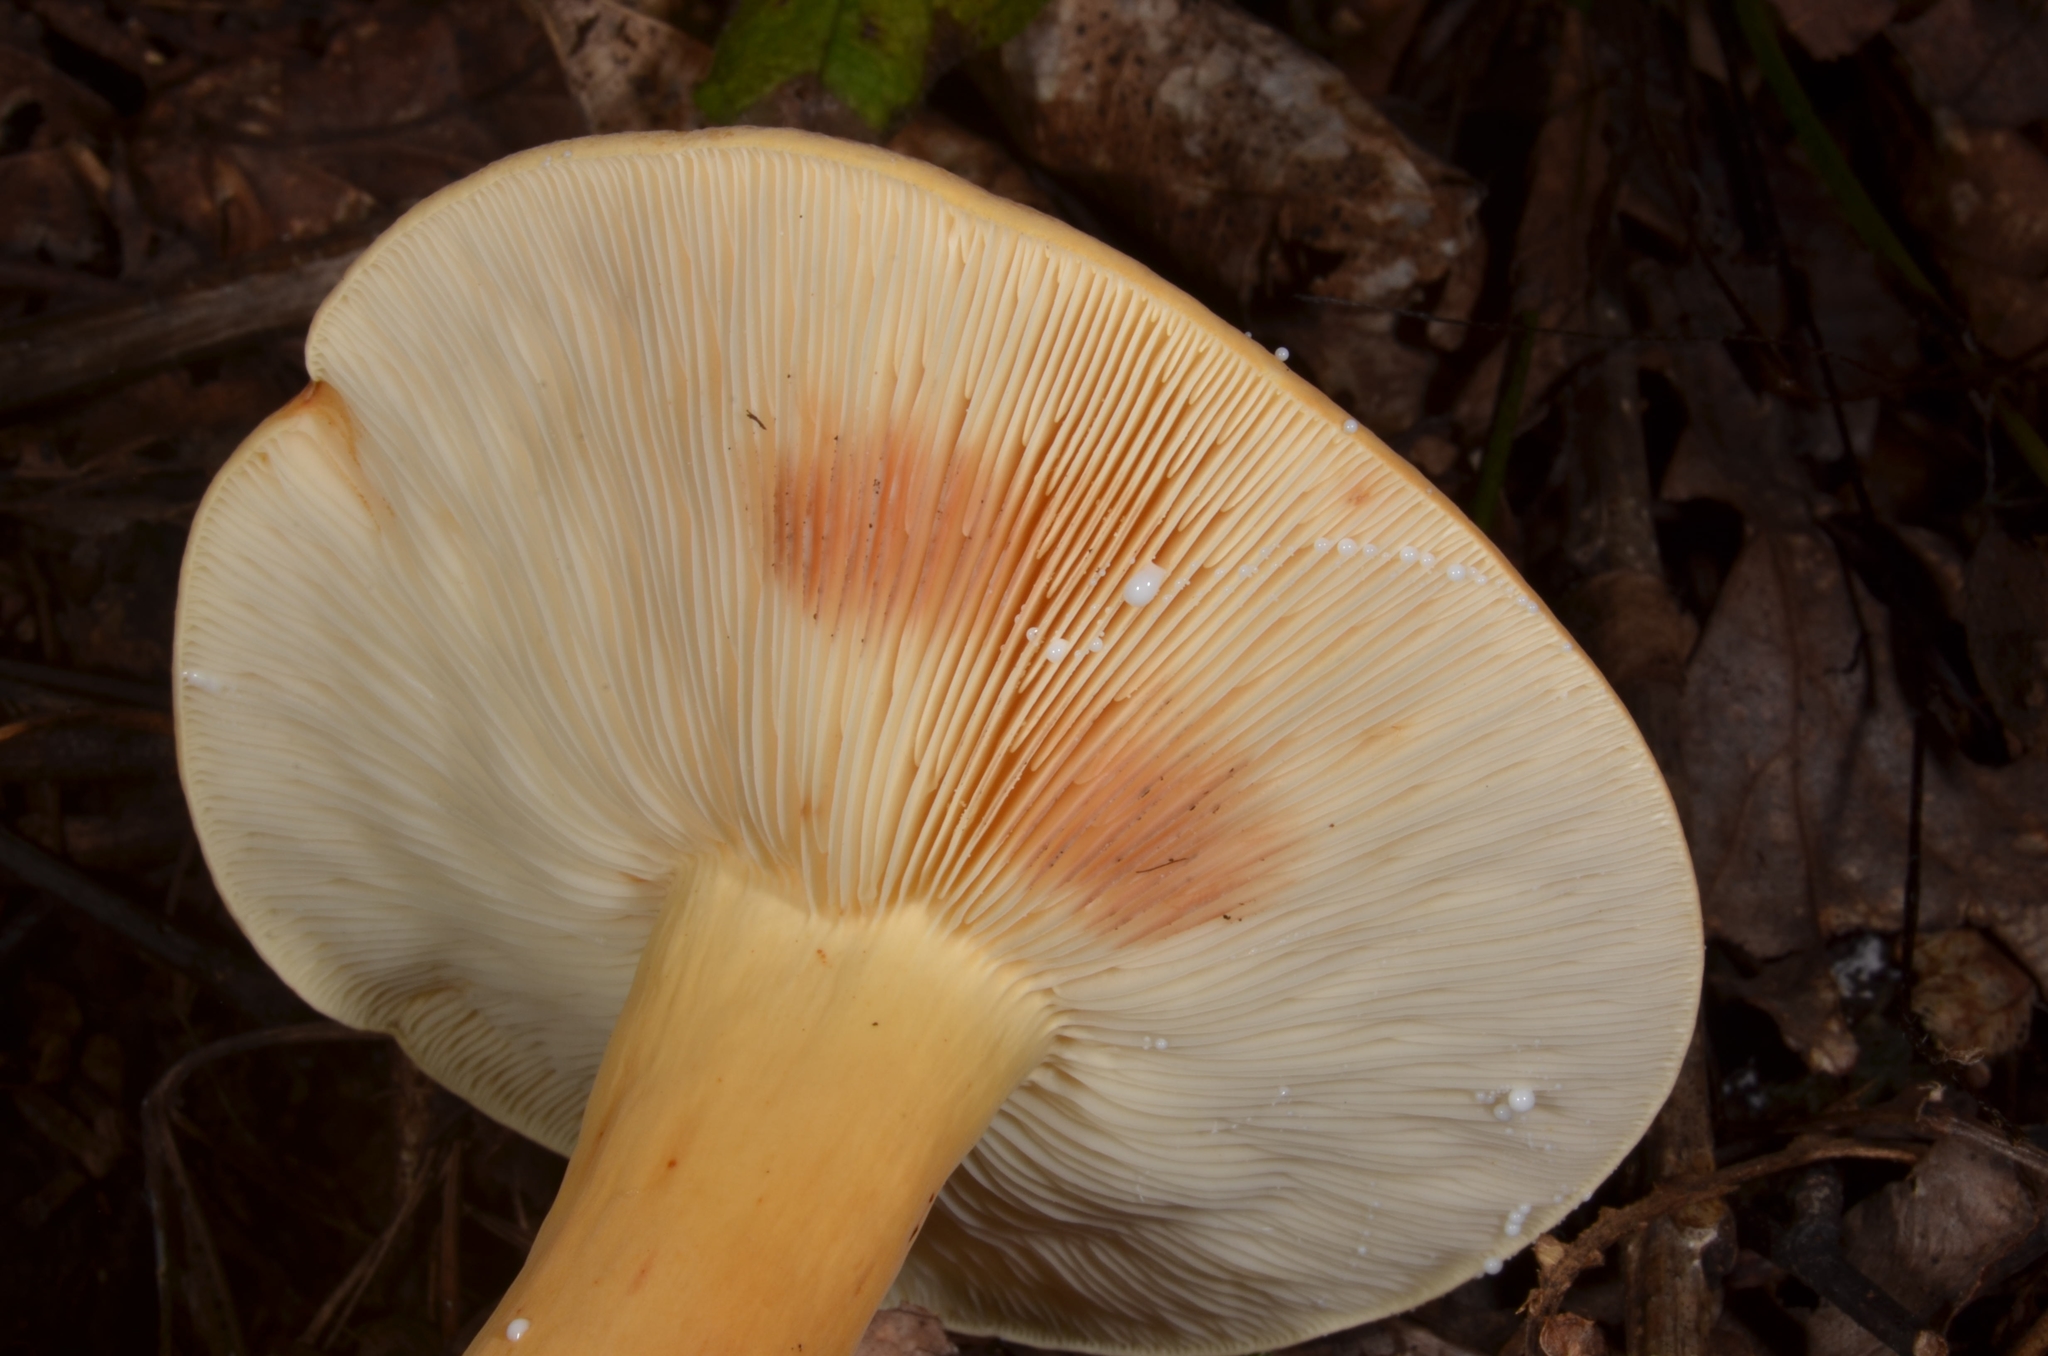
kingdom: Fungi
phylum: Basidiomycota
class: Agaricomycetes
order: Russulales
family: Russulaceae
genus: Lactifluus
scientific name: Lactifluus volemus
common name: Fishy milkcap
